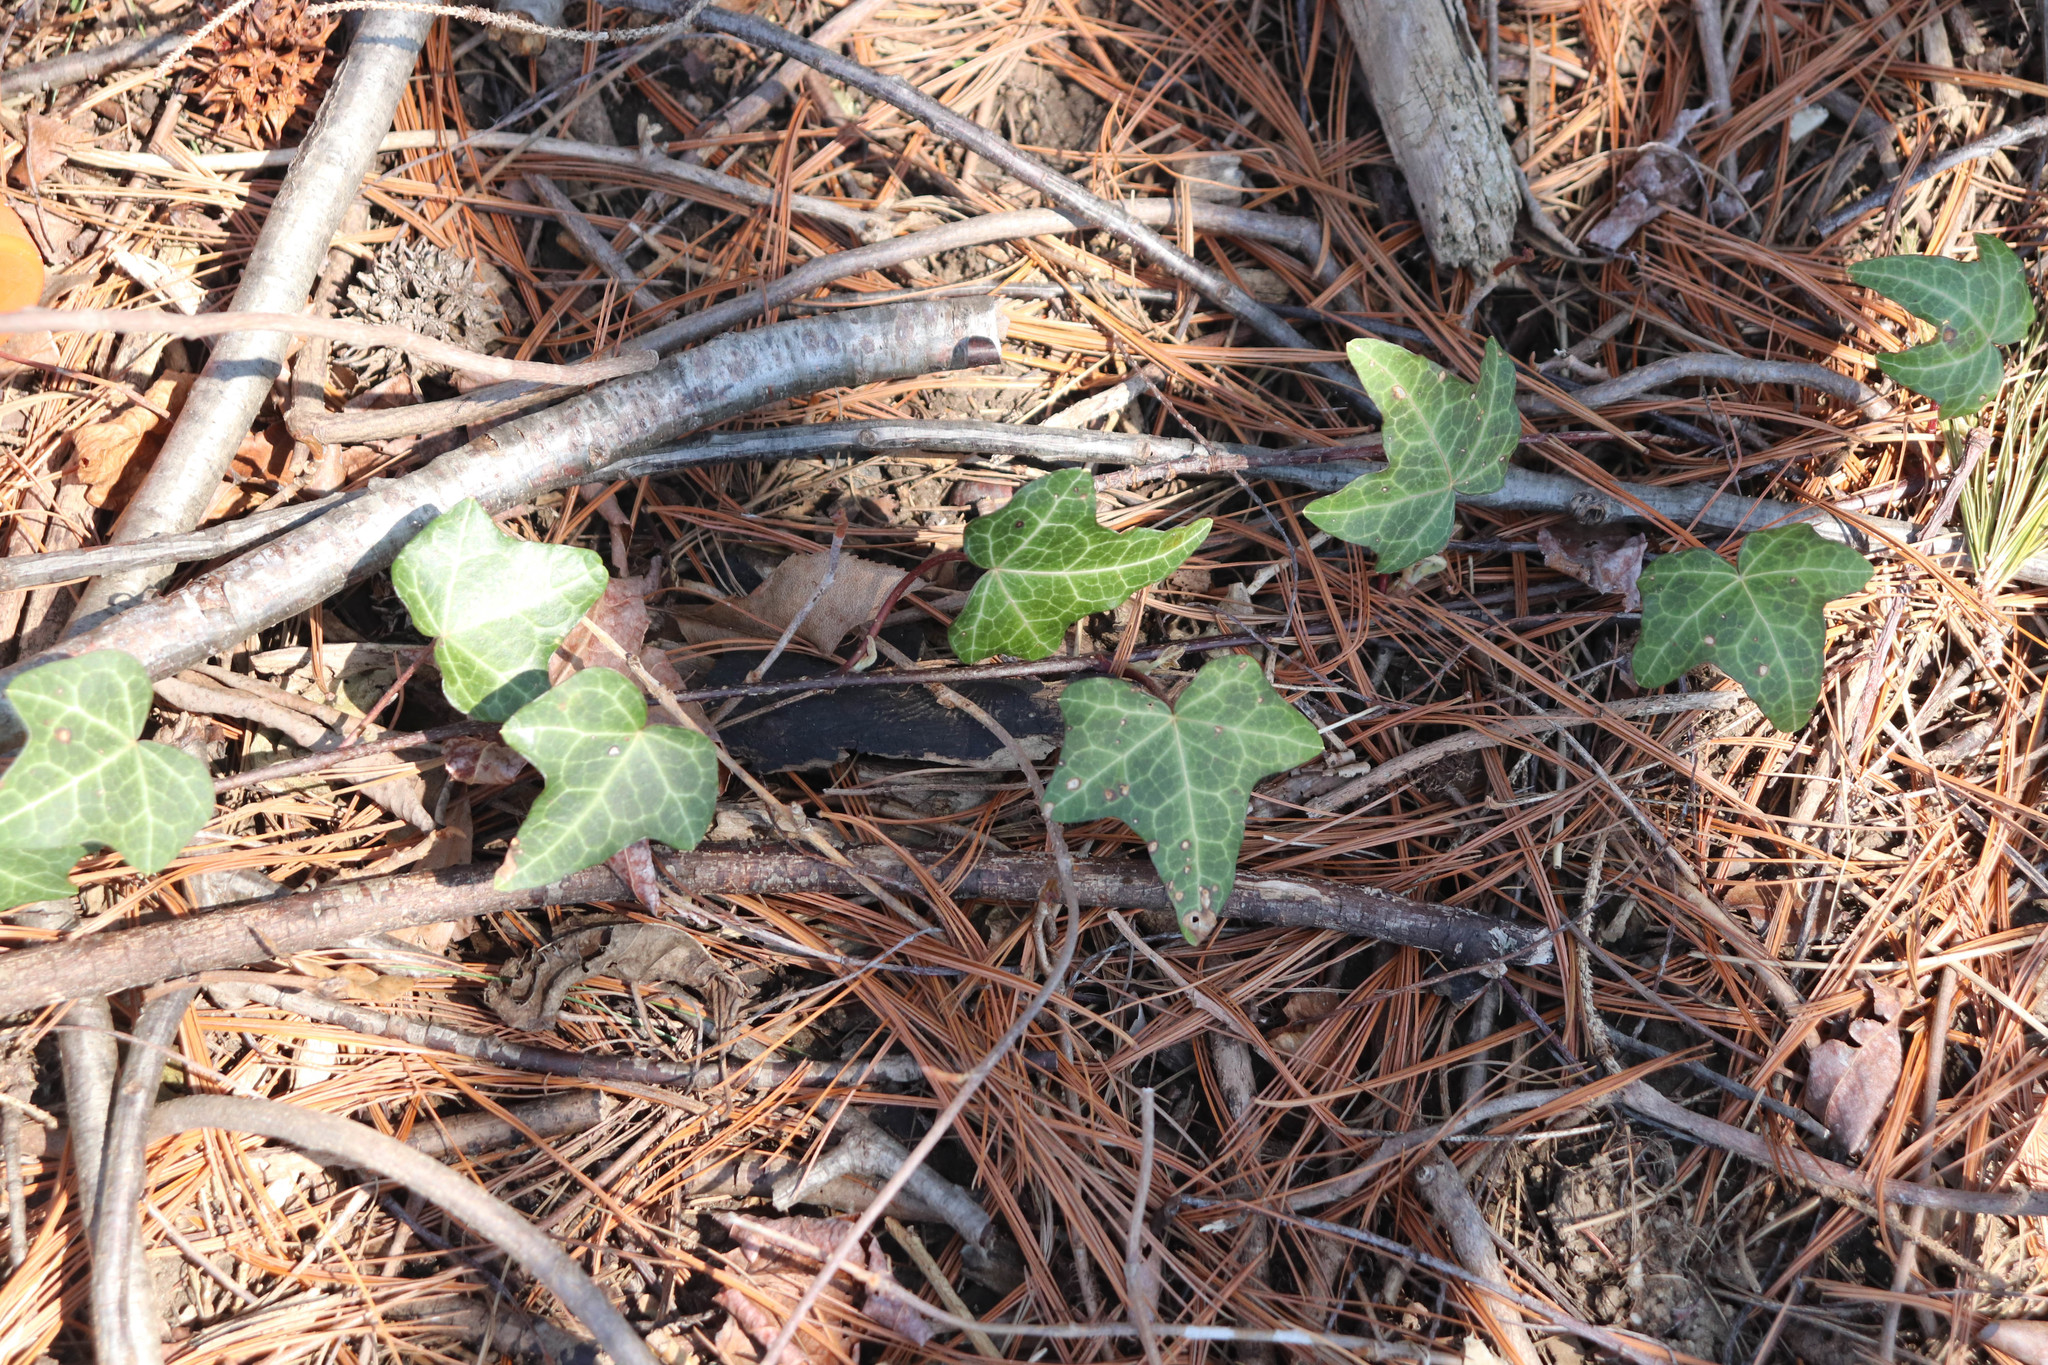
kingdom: Plantae
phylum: Tracheophyta
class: Magnoliopsida
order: Apiales
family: Araliaceae
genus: Hedera
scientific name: Hedera helix
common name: Ivy
